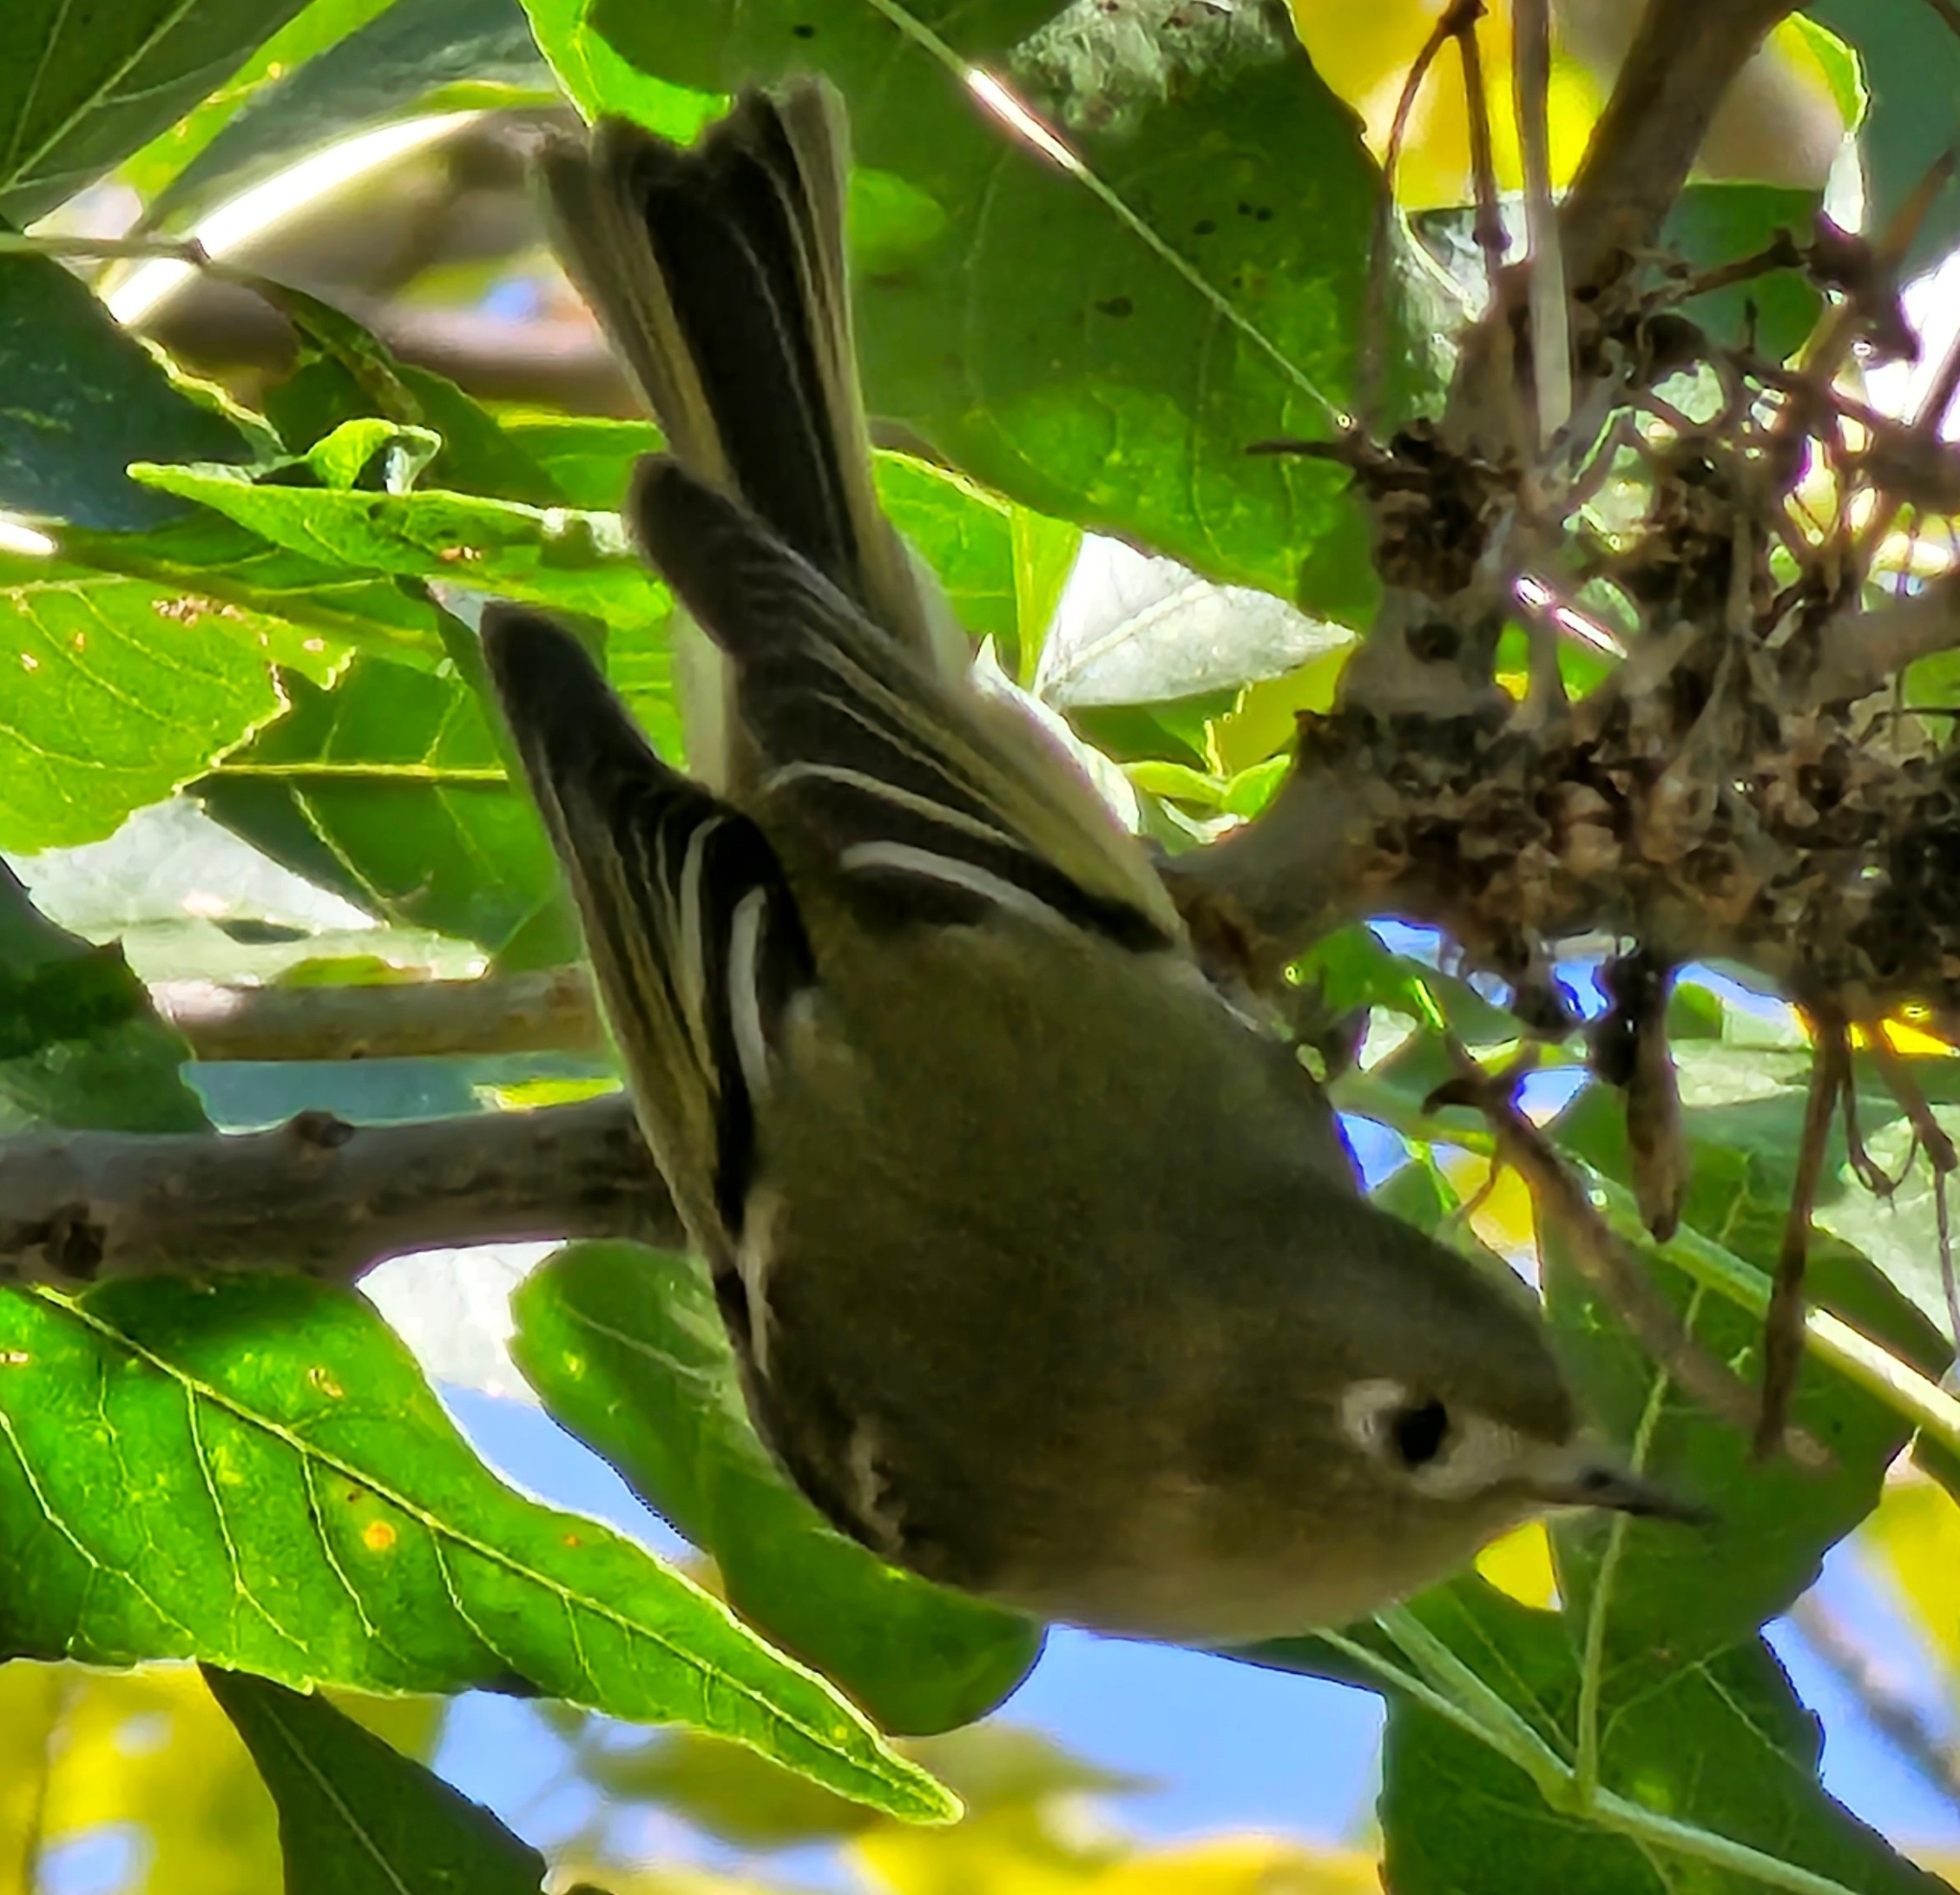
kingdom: Animalia
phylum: Chordata
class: Aves
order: Passeriformes
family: Regulidae
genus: Regulus
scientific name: Regulus calendula
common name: Ruby-crowned kinglet
